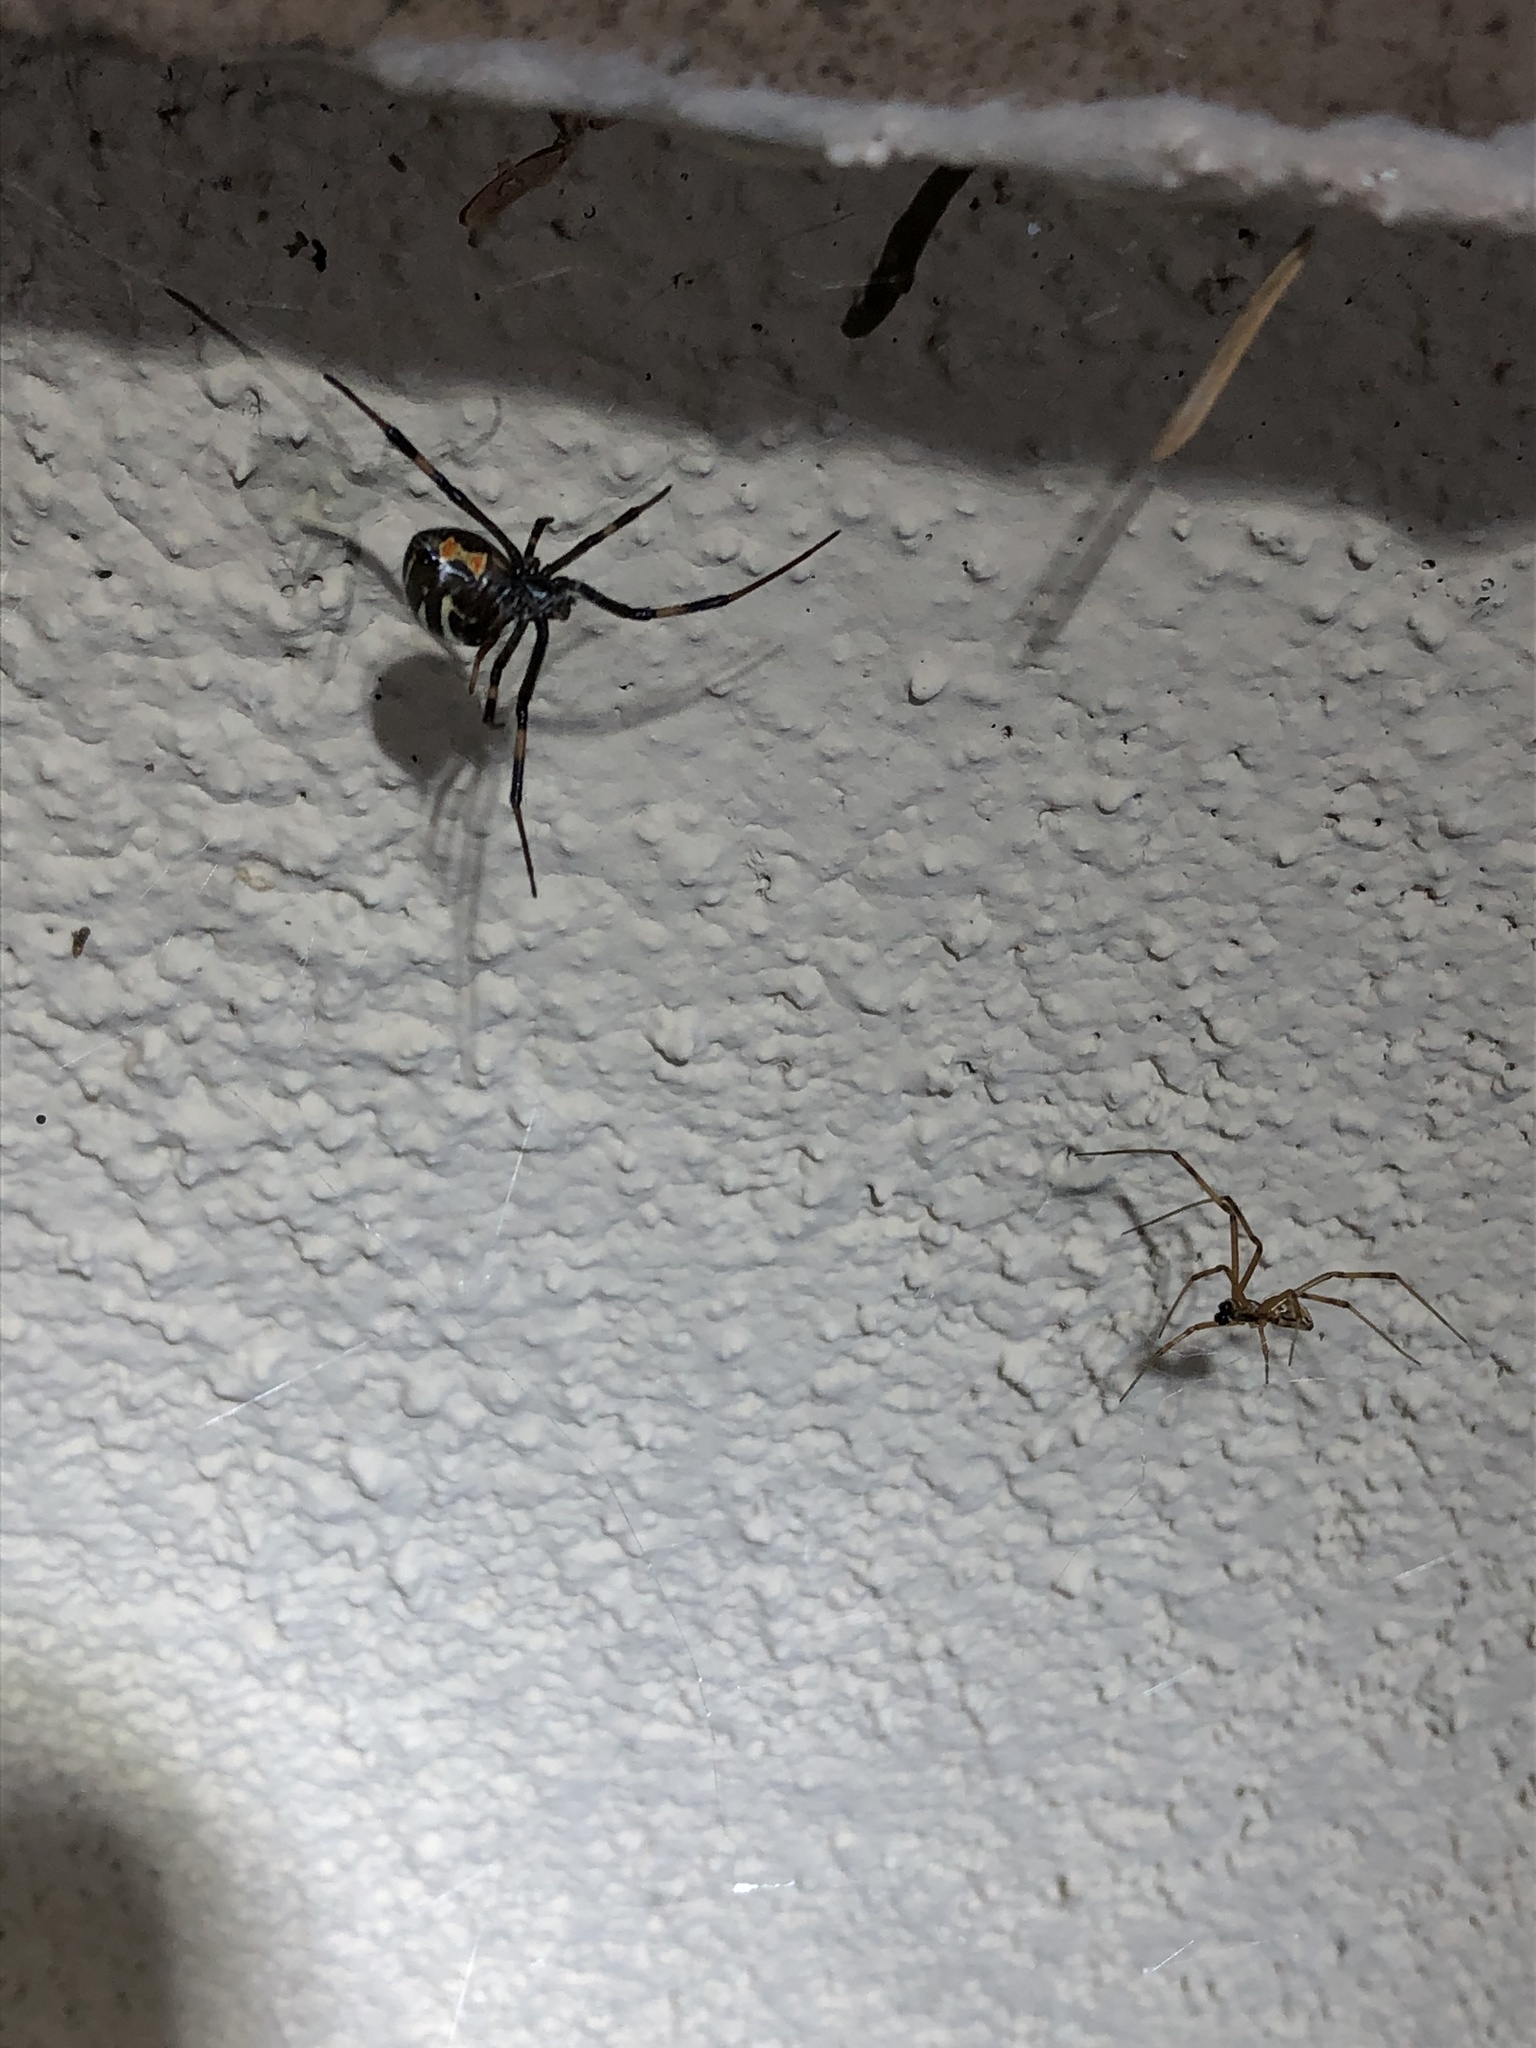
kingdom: Animalia
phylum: Arthropoda
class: Arachnida
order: Araneae
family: Theridiidae
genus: Latrodectus
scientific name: Latrodectus hesperus
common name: Western black widow
